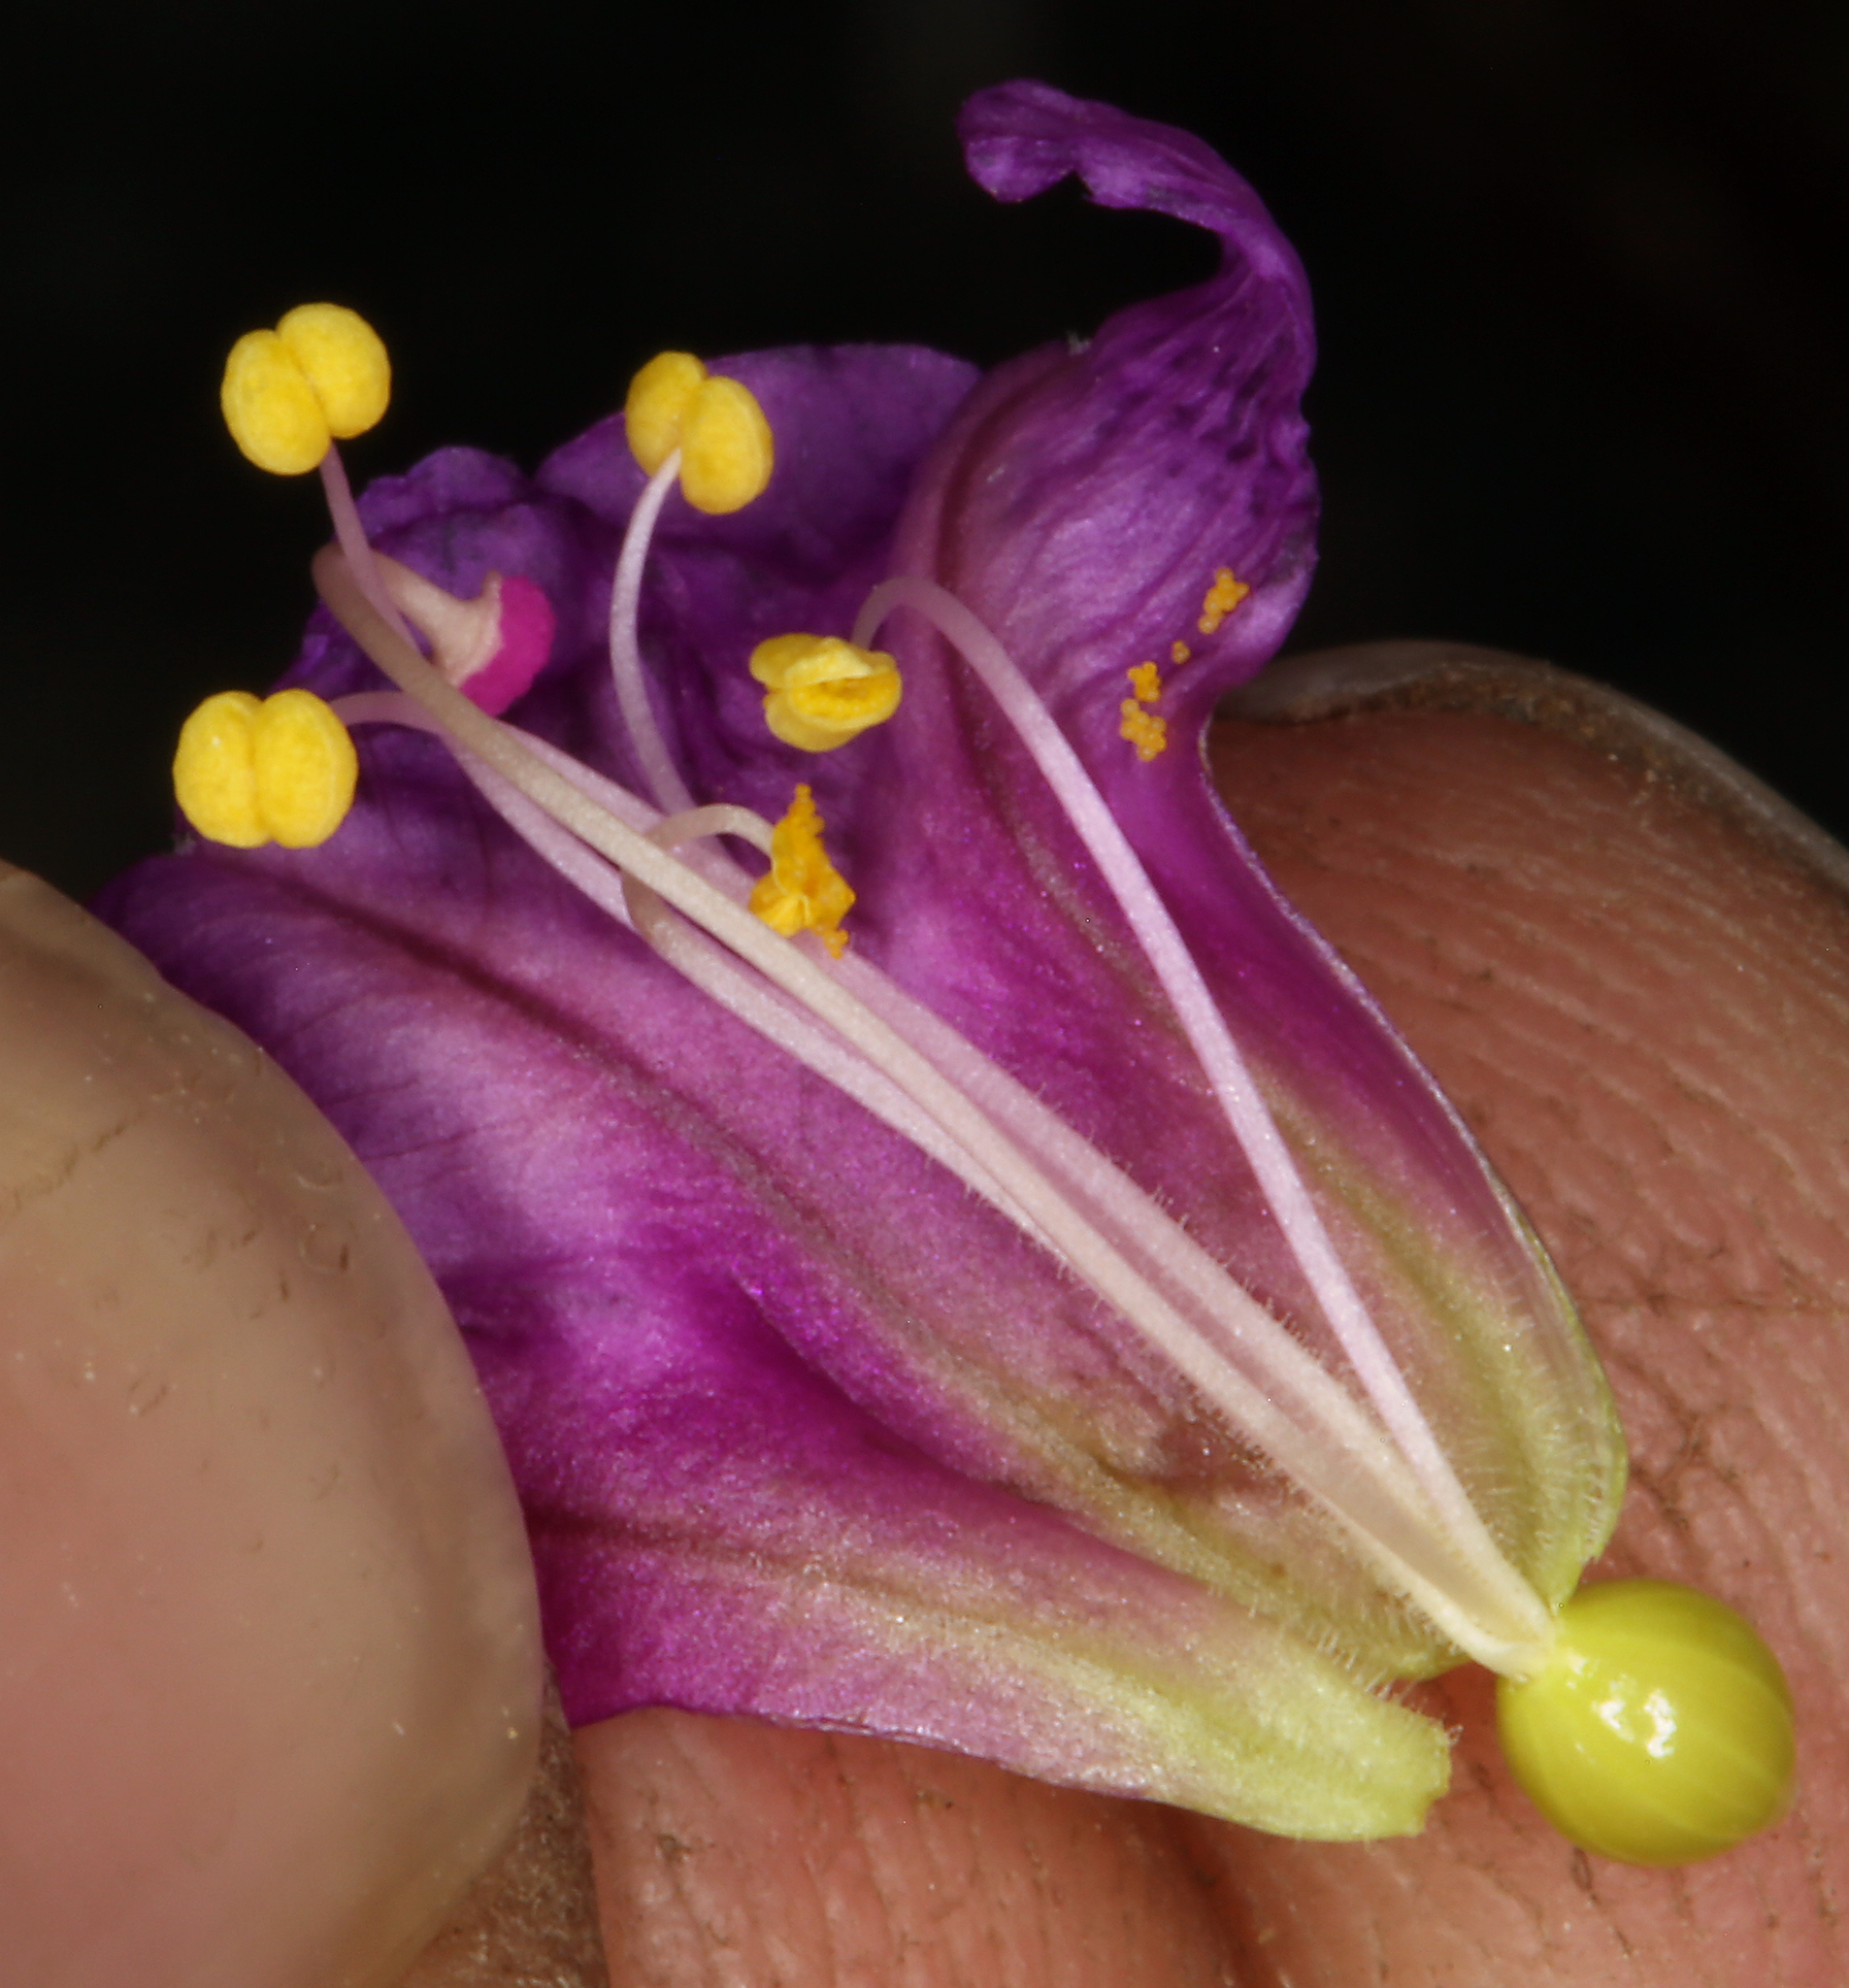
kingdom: Plantae
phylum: Tracheophyta
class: Magnoliopsida
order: Caryophyllales
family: Nyctaginaceae
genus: Mirabilis
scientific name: Mirabilis alipes
